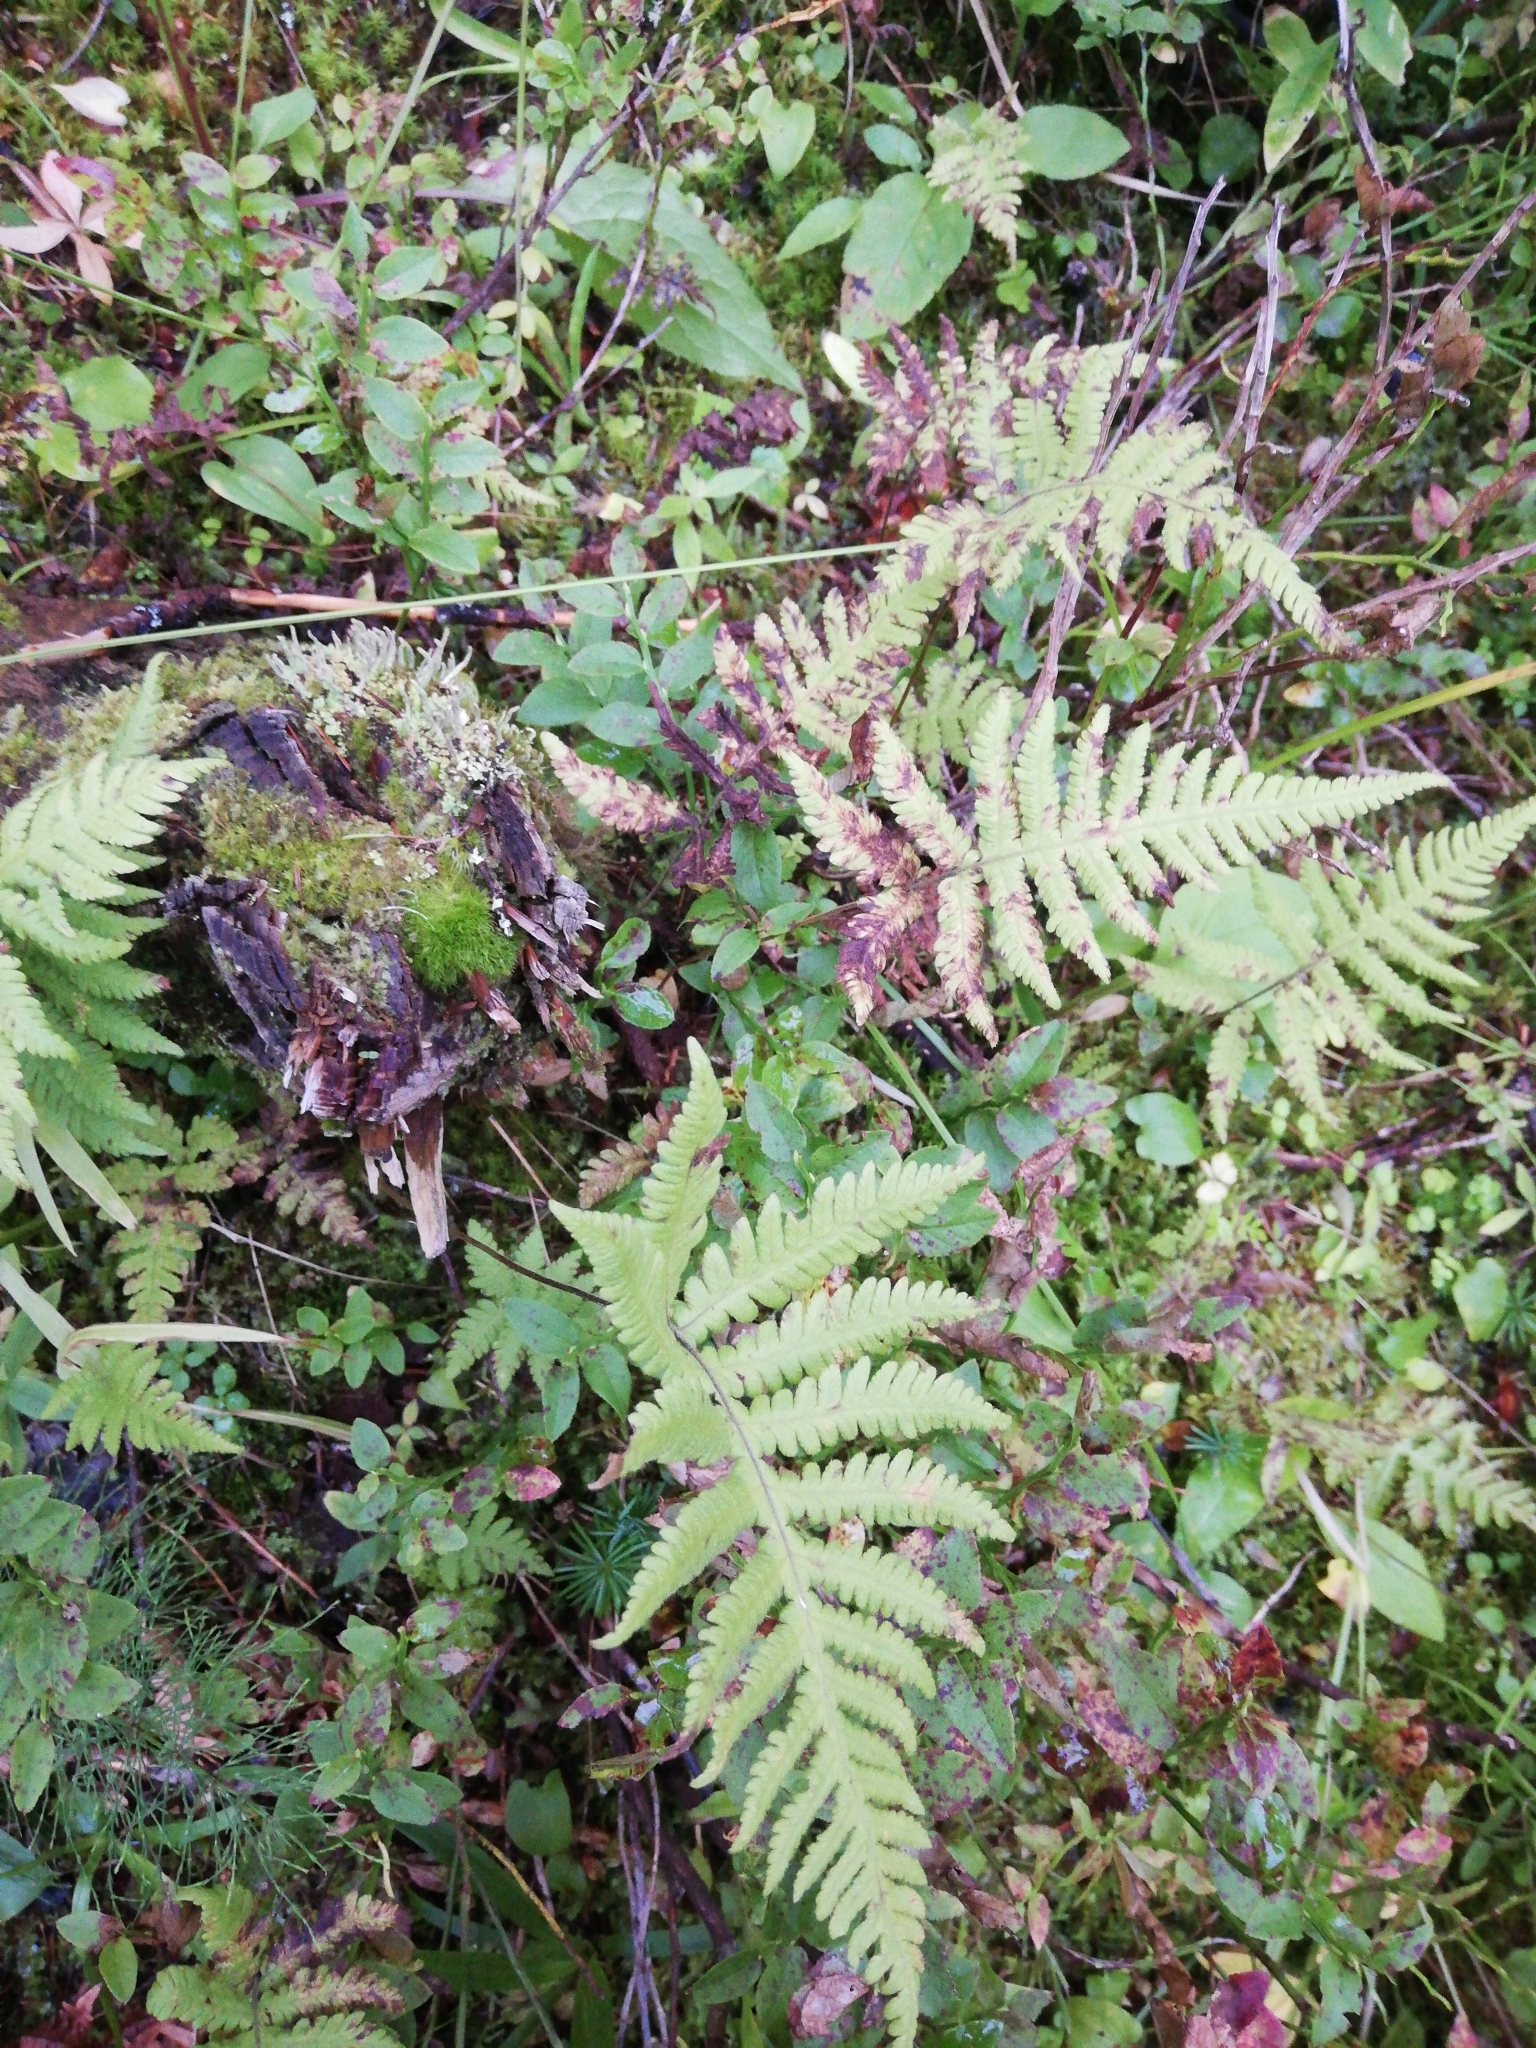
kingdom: Plantae
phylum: Tracheophyta
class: Polypodiopsida
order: Polypodiales
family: Thelypteridaceae
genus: Phegopteris
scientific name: Phegopteris connectilis
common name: Beech fern
